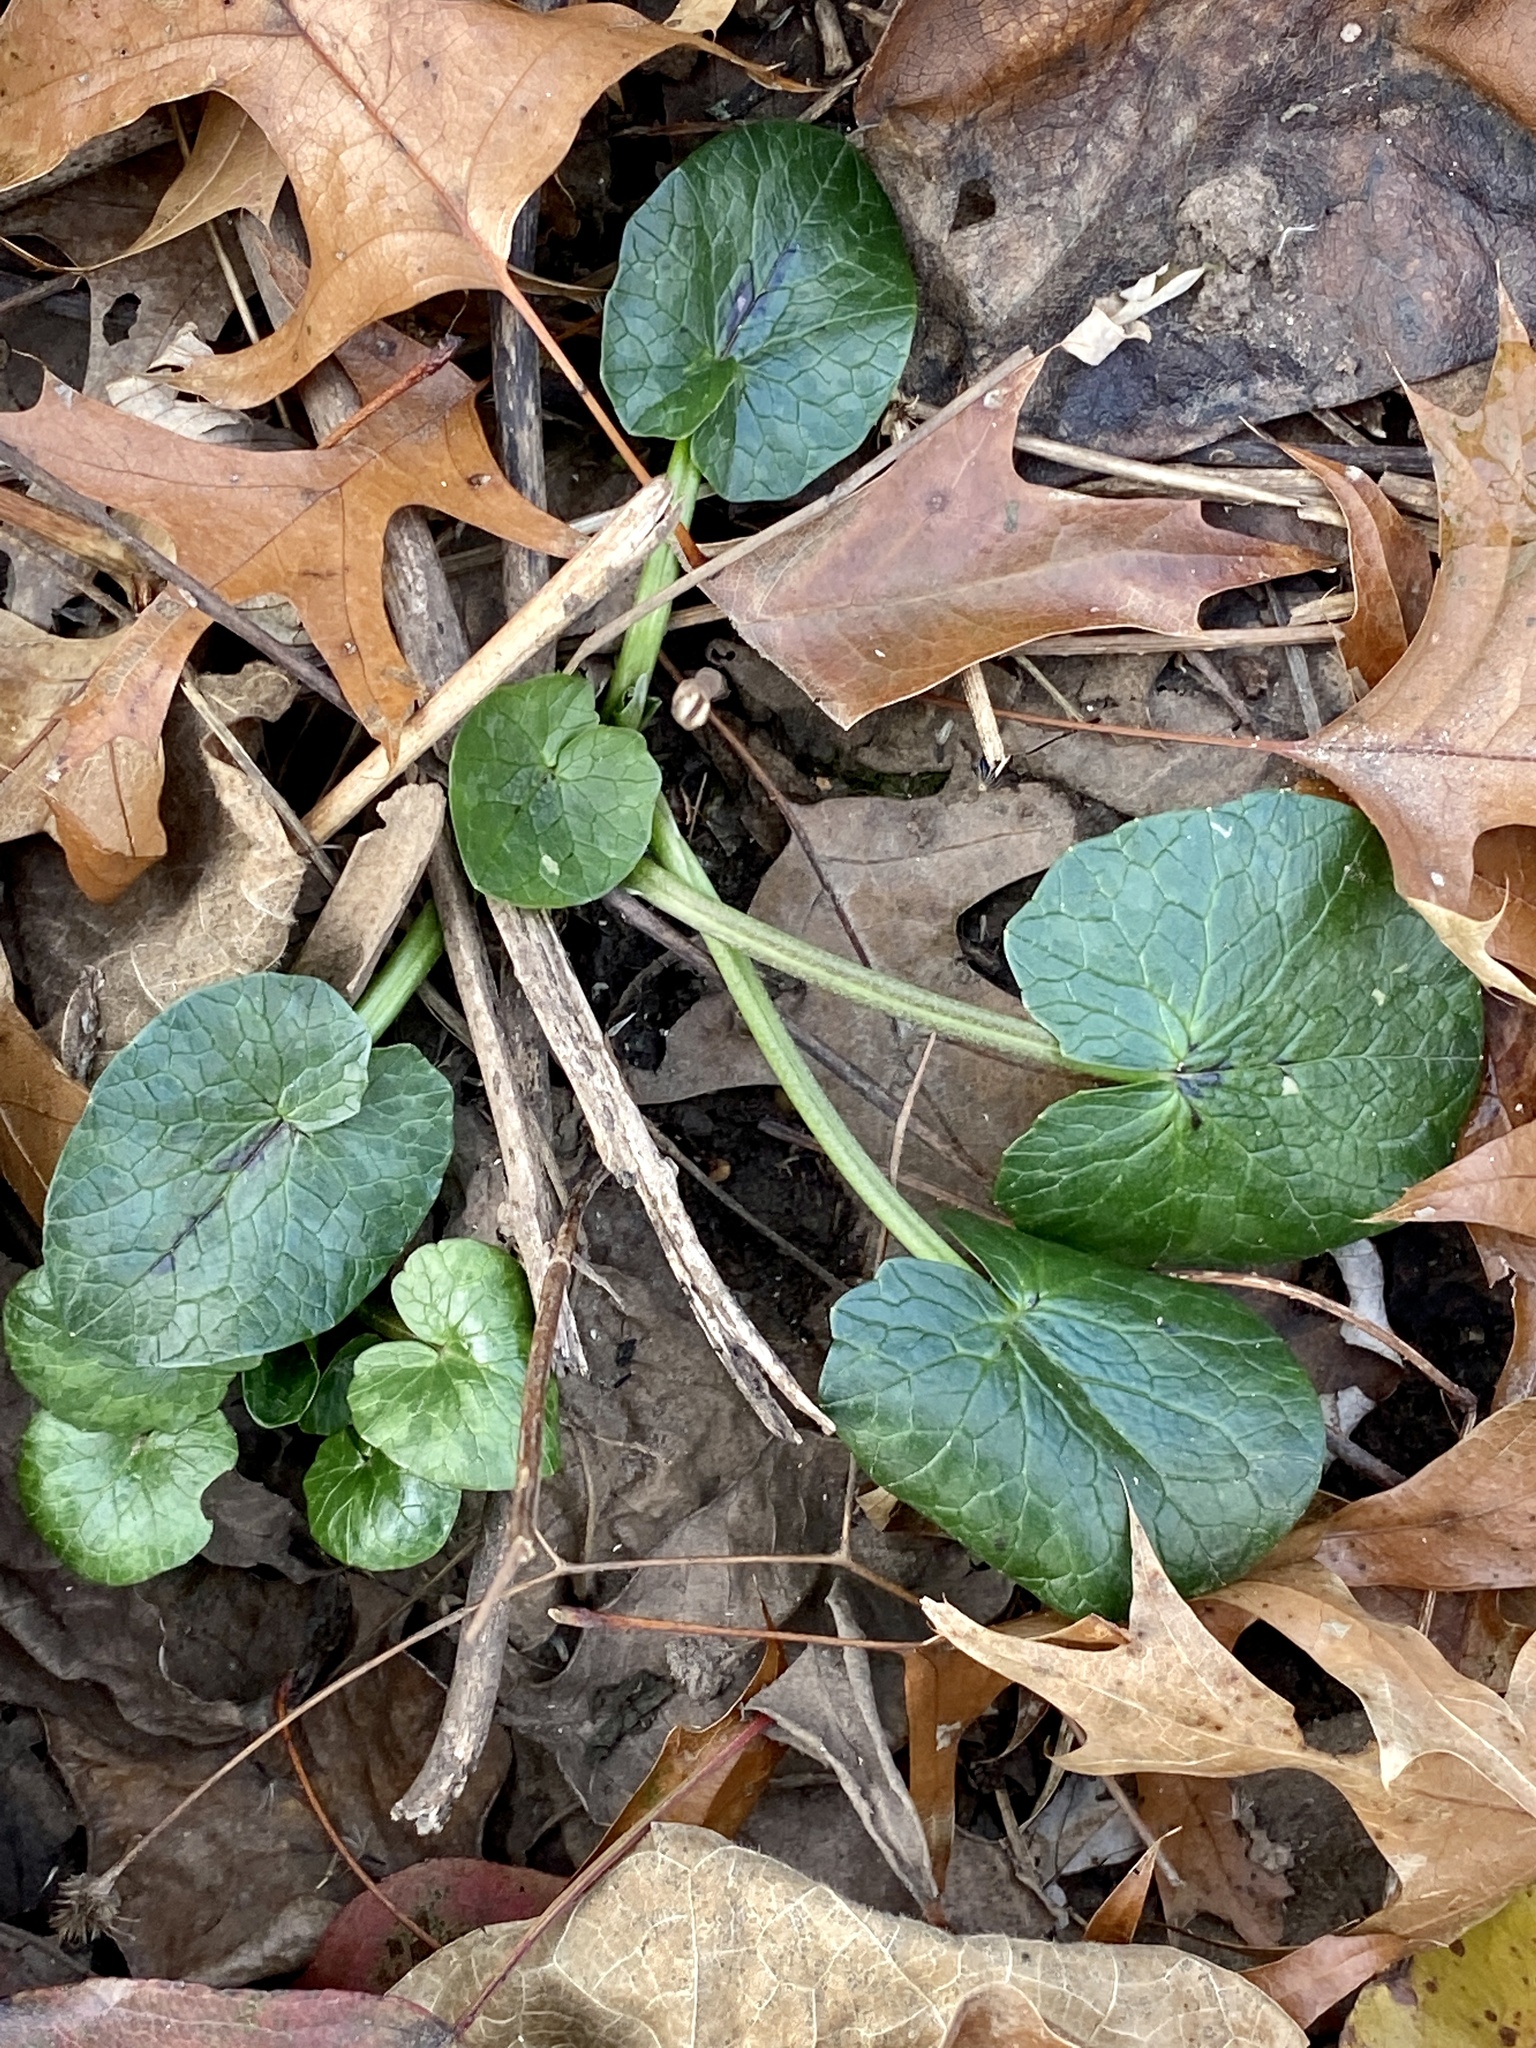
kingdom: Plantae
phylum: Tracheophyta
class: Magnoliopsida
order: Ranunculales
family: Ranunculaceae
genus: Ficaria
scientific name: Ficaria verna
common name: Lesser celandine
